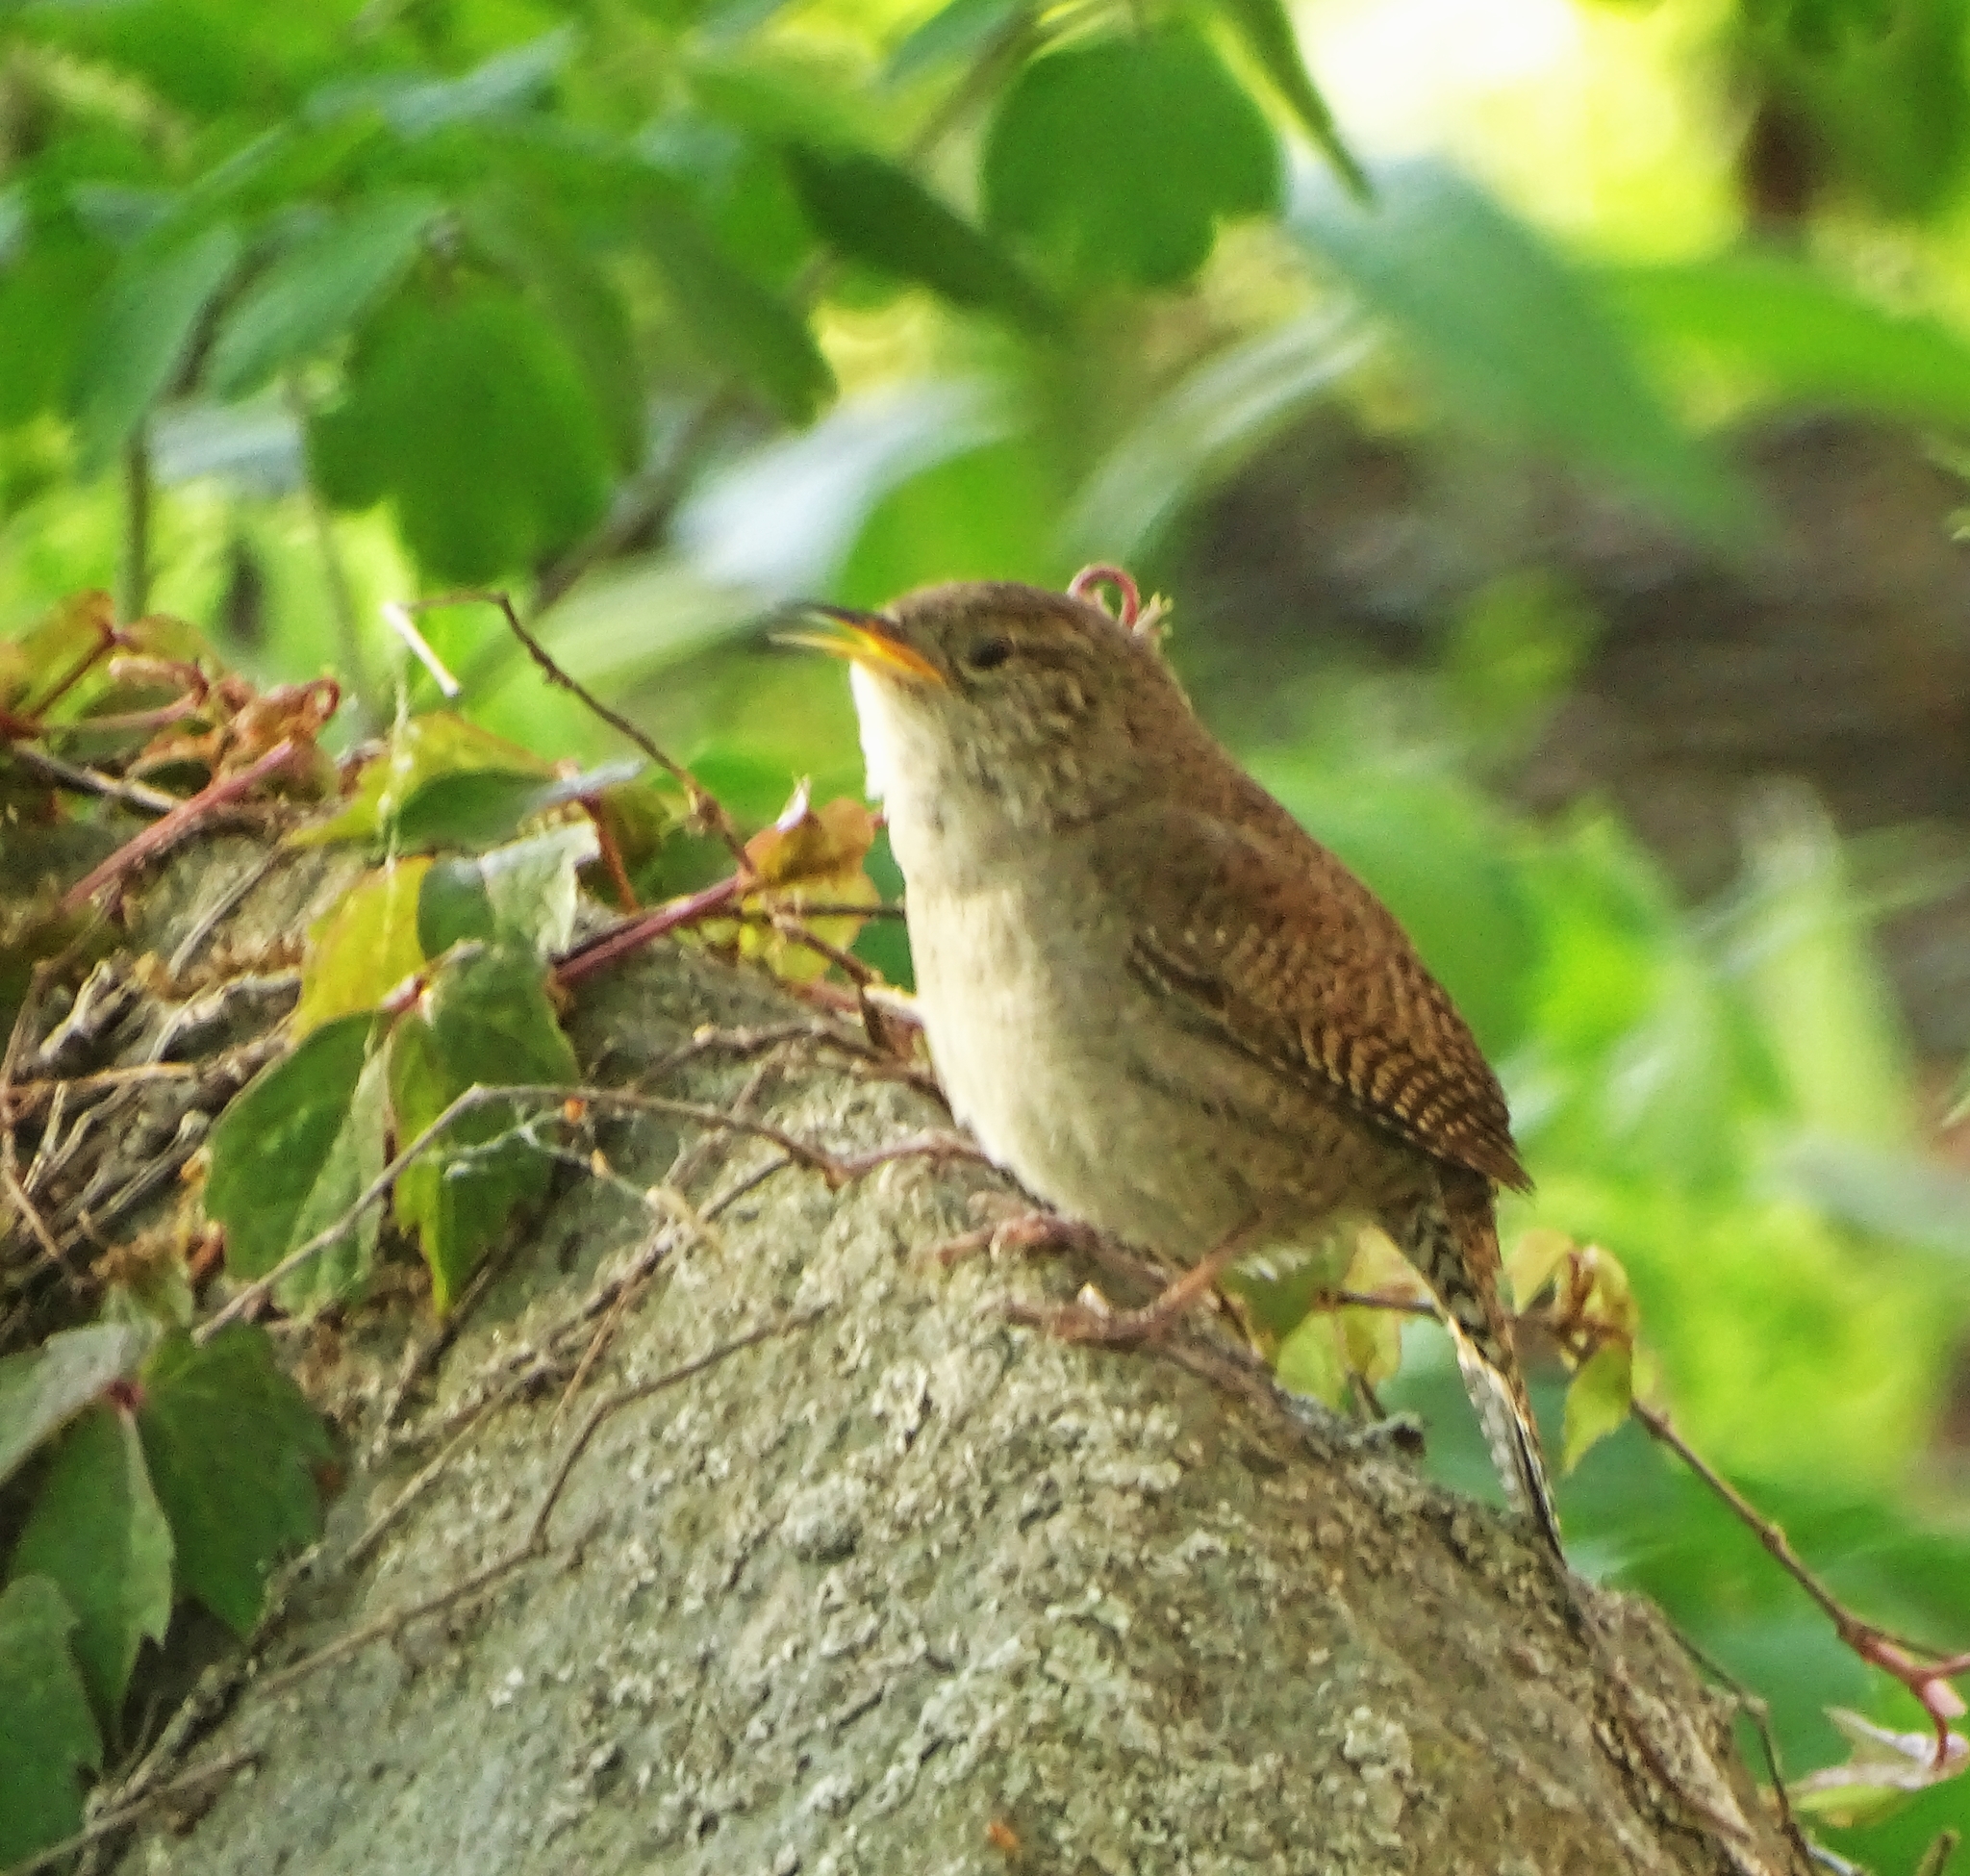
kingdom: Animalia
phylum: Chordata
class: Aves
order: Passeriformes
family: Troglodytidae
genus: Troglodytes
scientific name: Troglodytes aedon
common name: House wren
